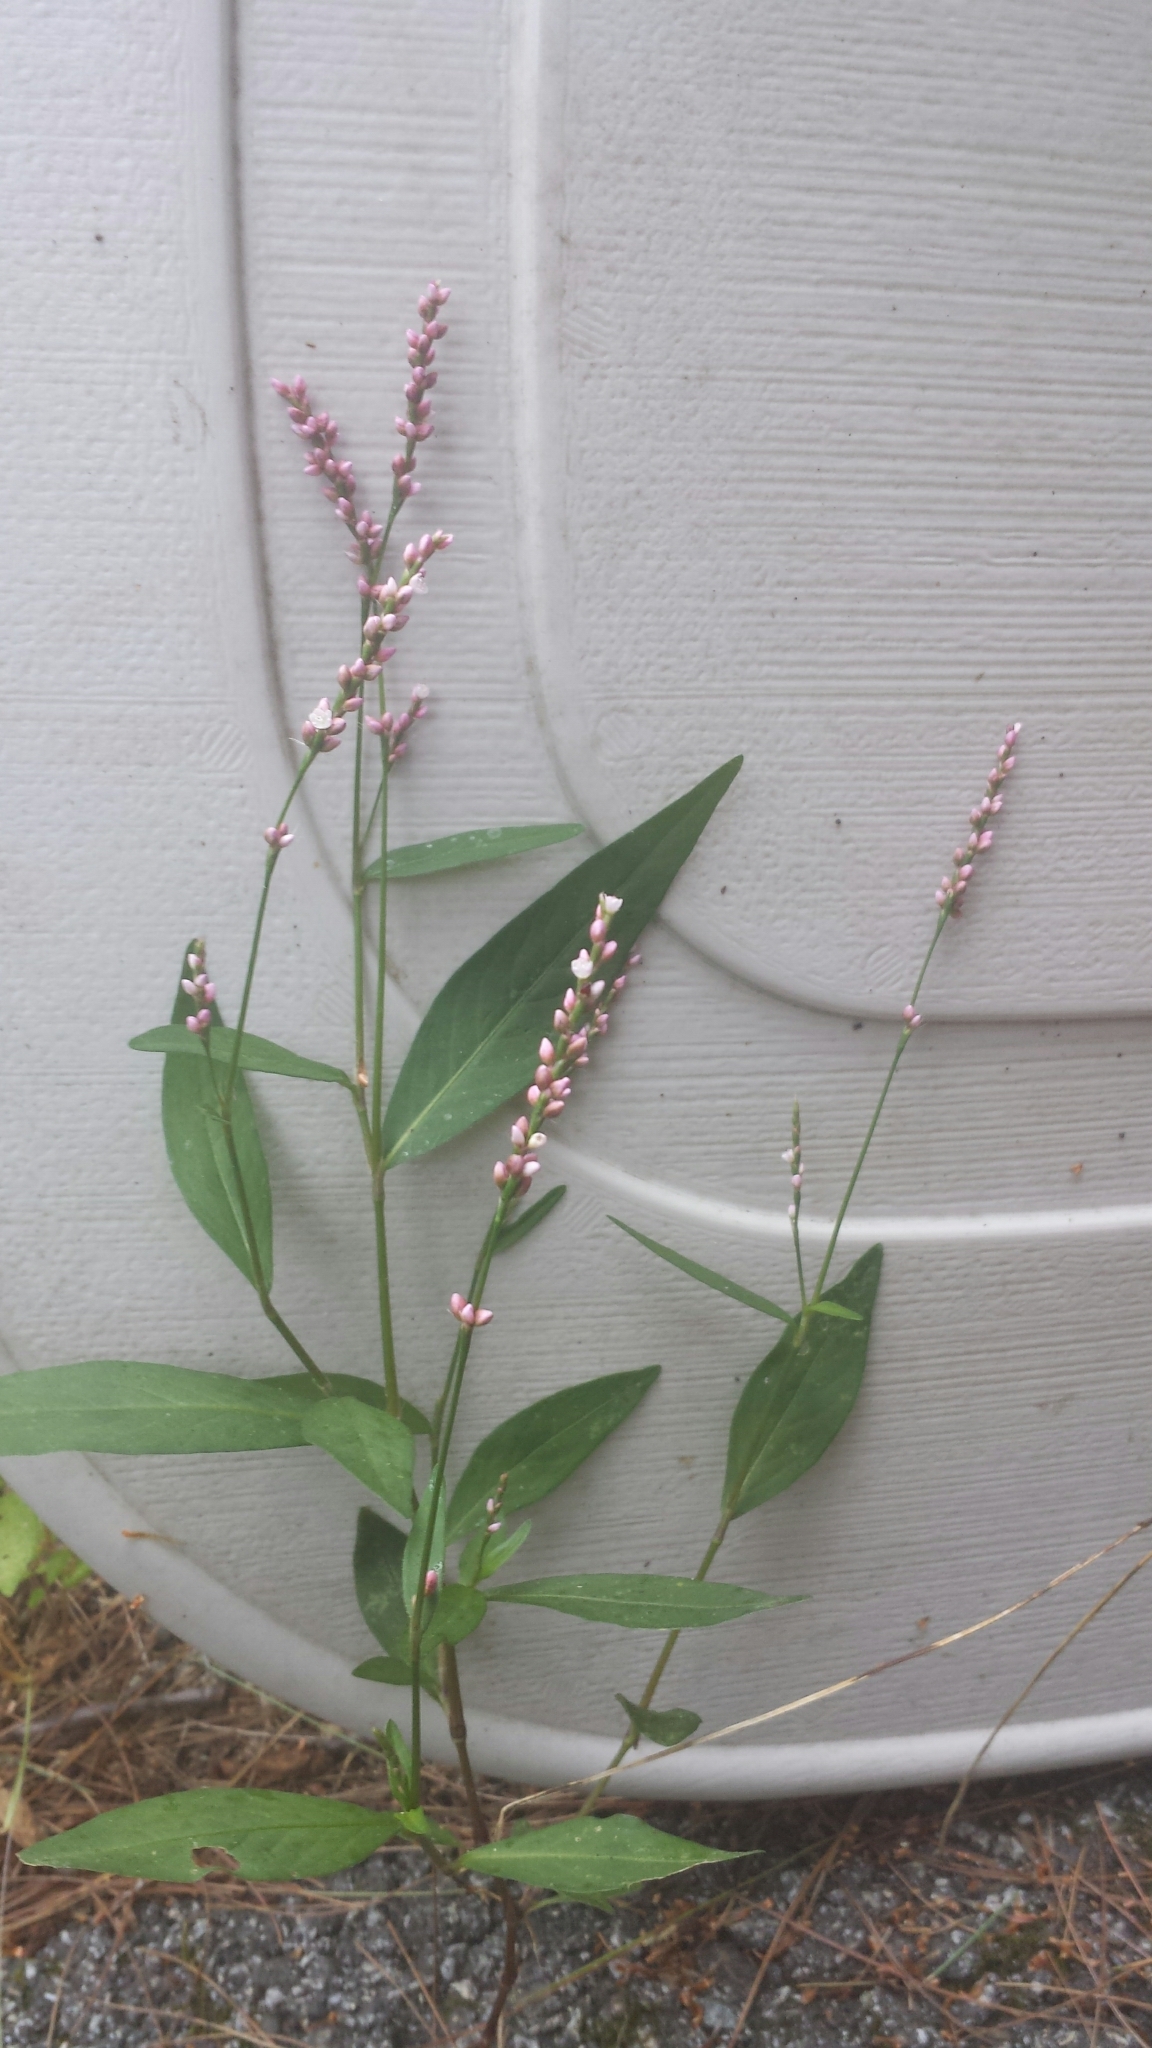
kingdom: Plantae
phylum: Tracheophyta
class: Magnoliopsida
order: Caryophyllales
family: Polygonaceae
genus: Persicaria
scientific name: Persicaria longiseta
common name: Bristly lady's-thumb
